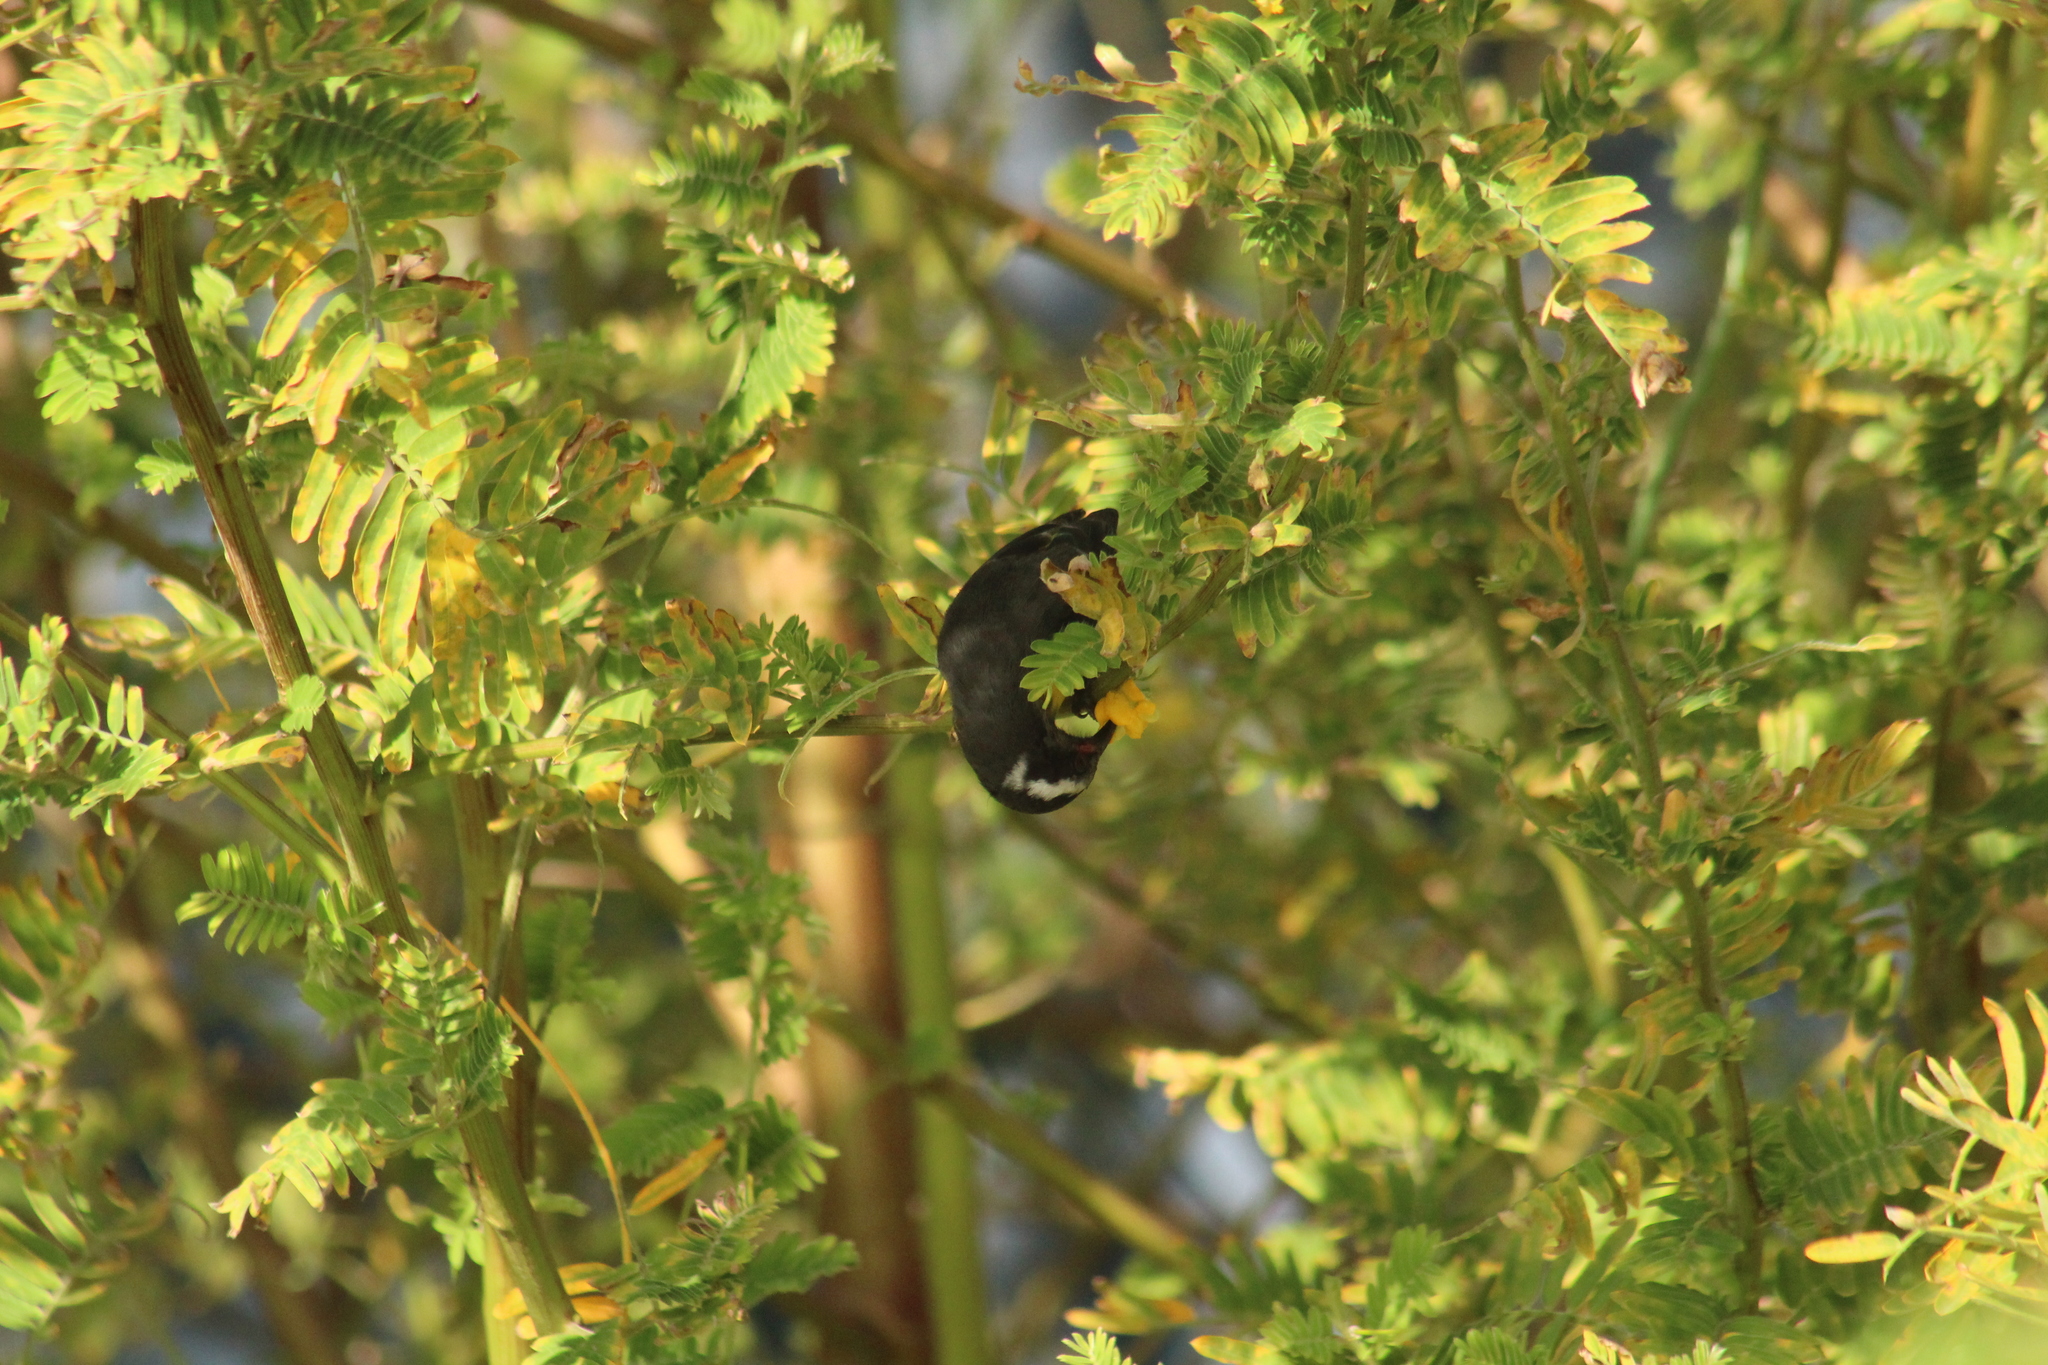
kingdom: Animalia
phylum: Chordata
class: Aves
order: Passeriformes
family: Thraupidae
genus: Coereba
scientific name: Coereba flaveola
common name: Bananaquit
